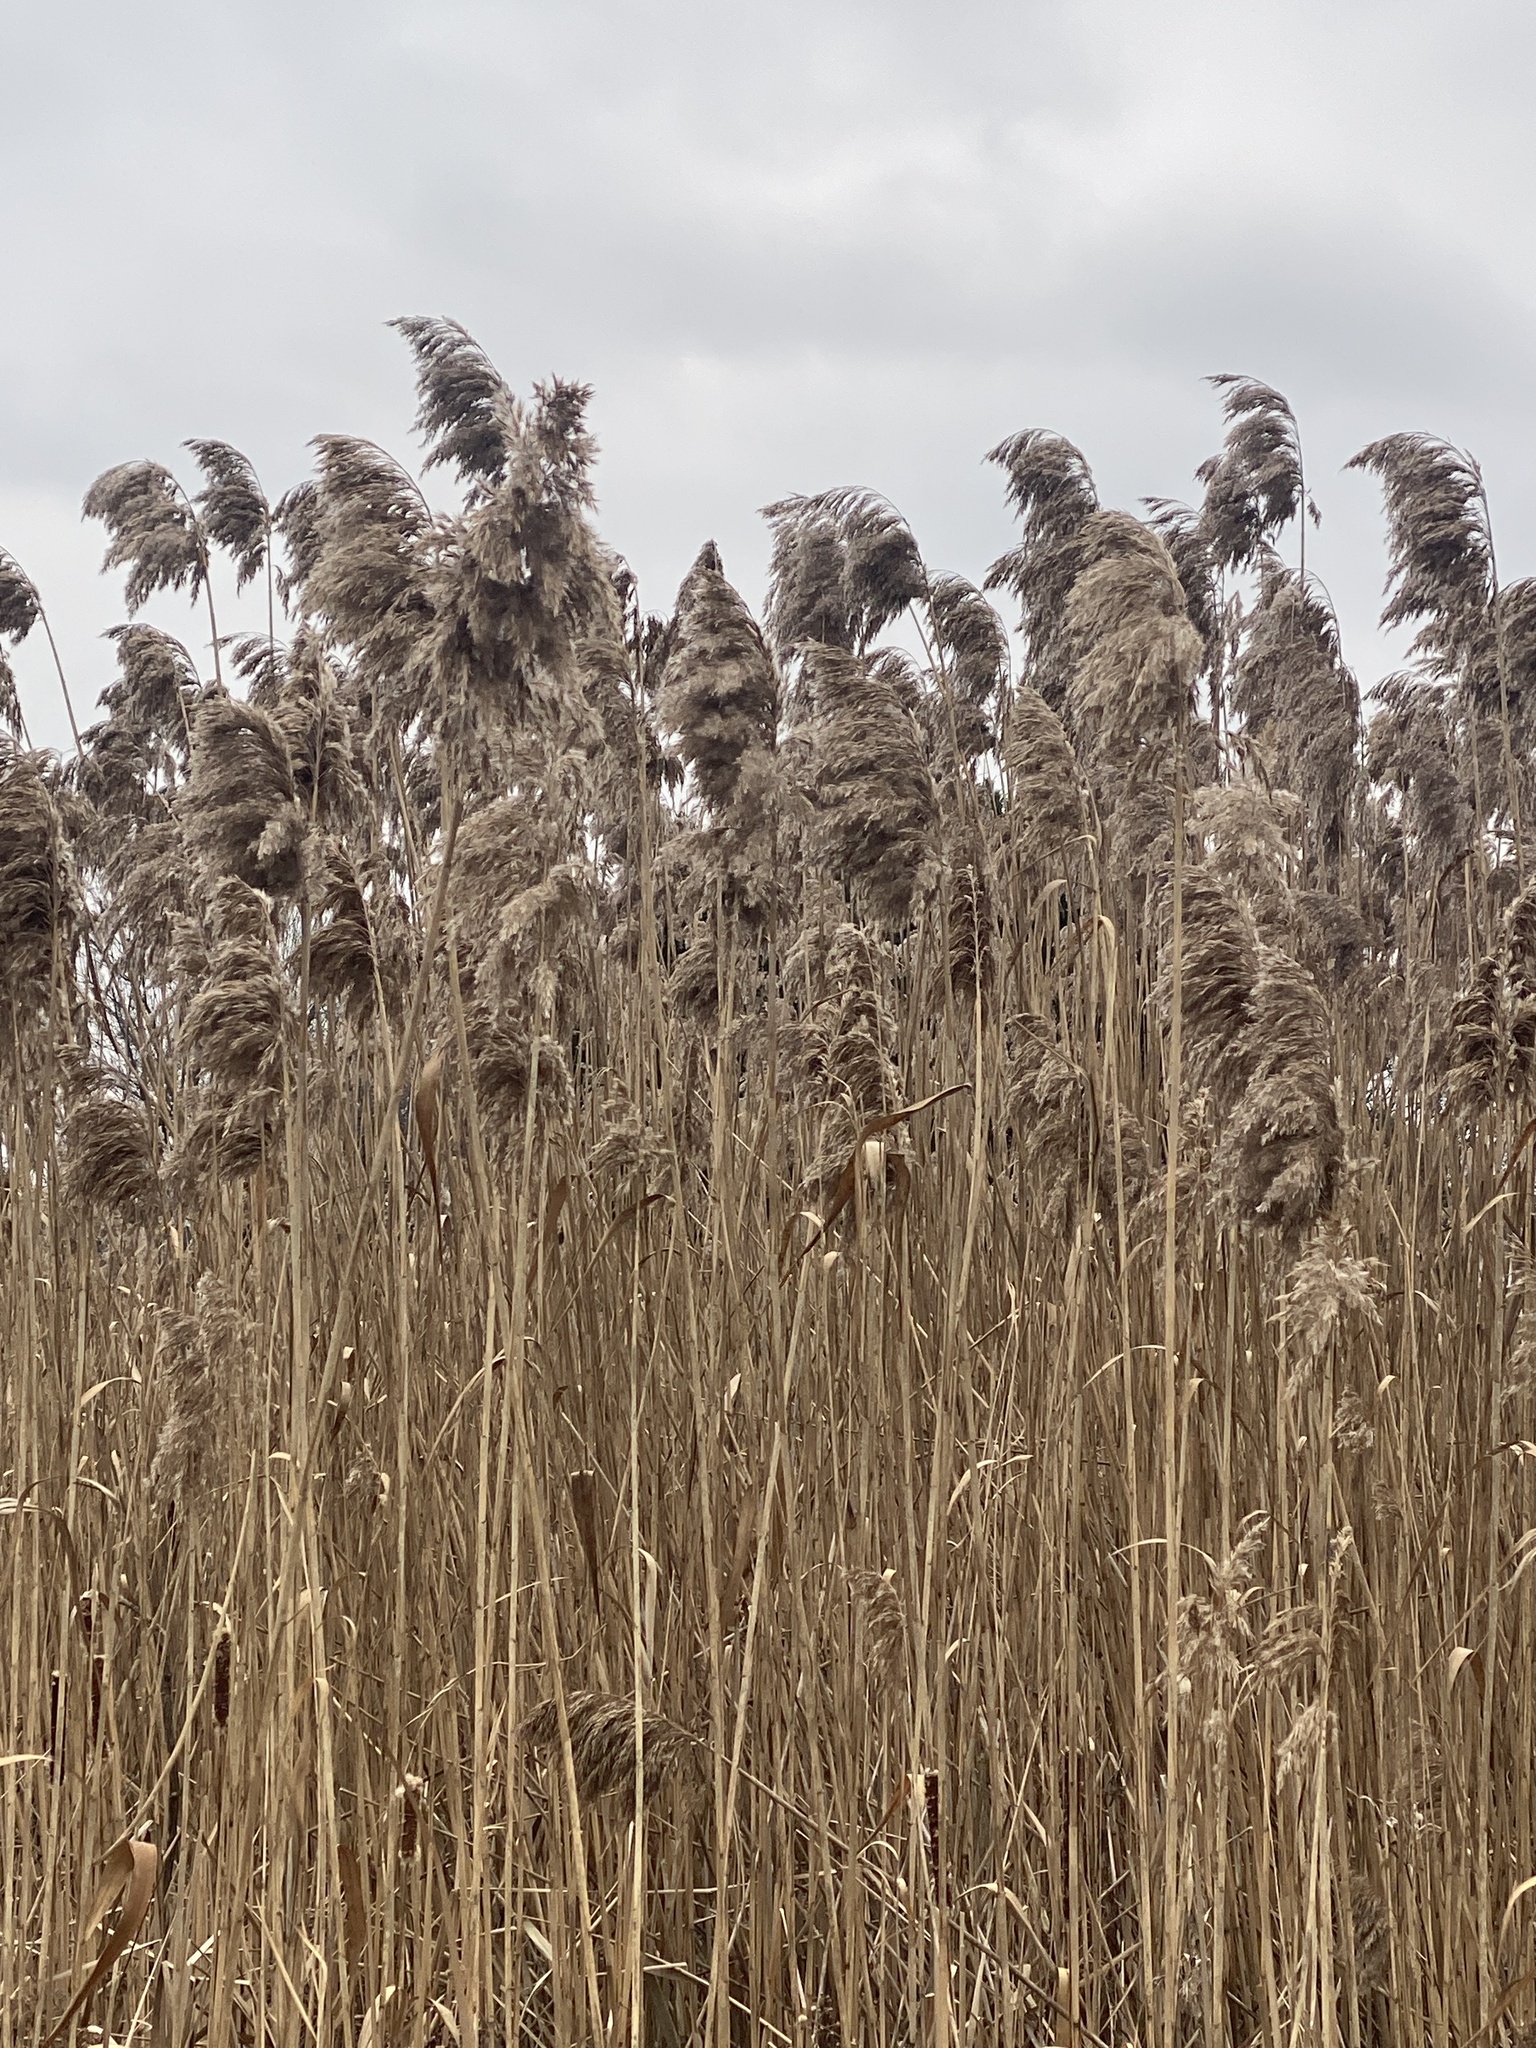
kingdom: Plantae
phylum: Tracheophyta
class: Liliopsida
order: Poales
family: Poaceae
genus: Phragmites
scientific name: Phragmites australis
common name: Common reed
